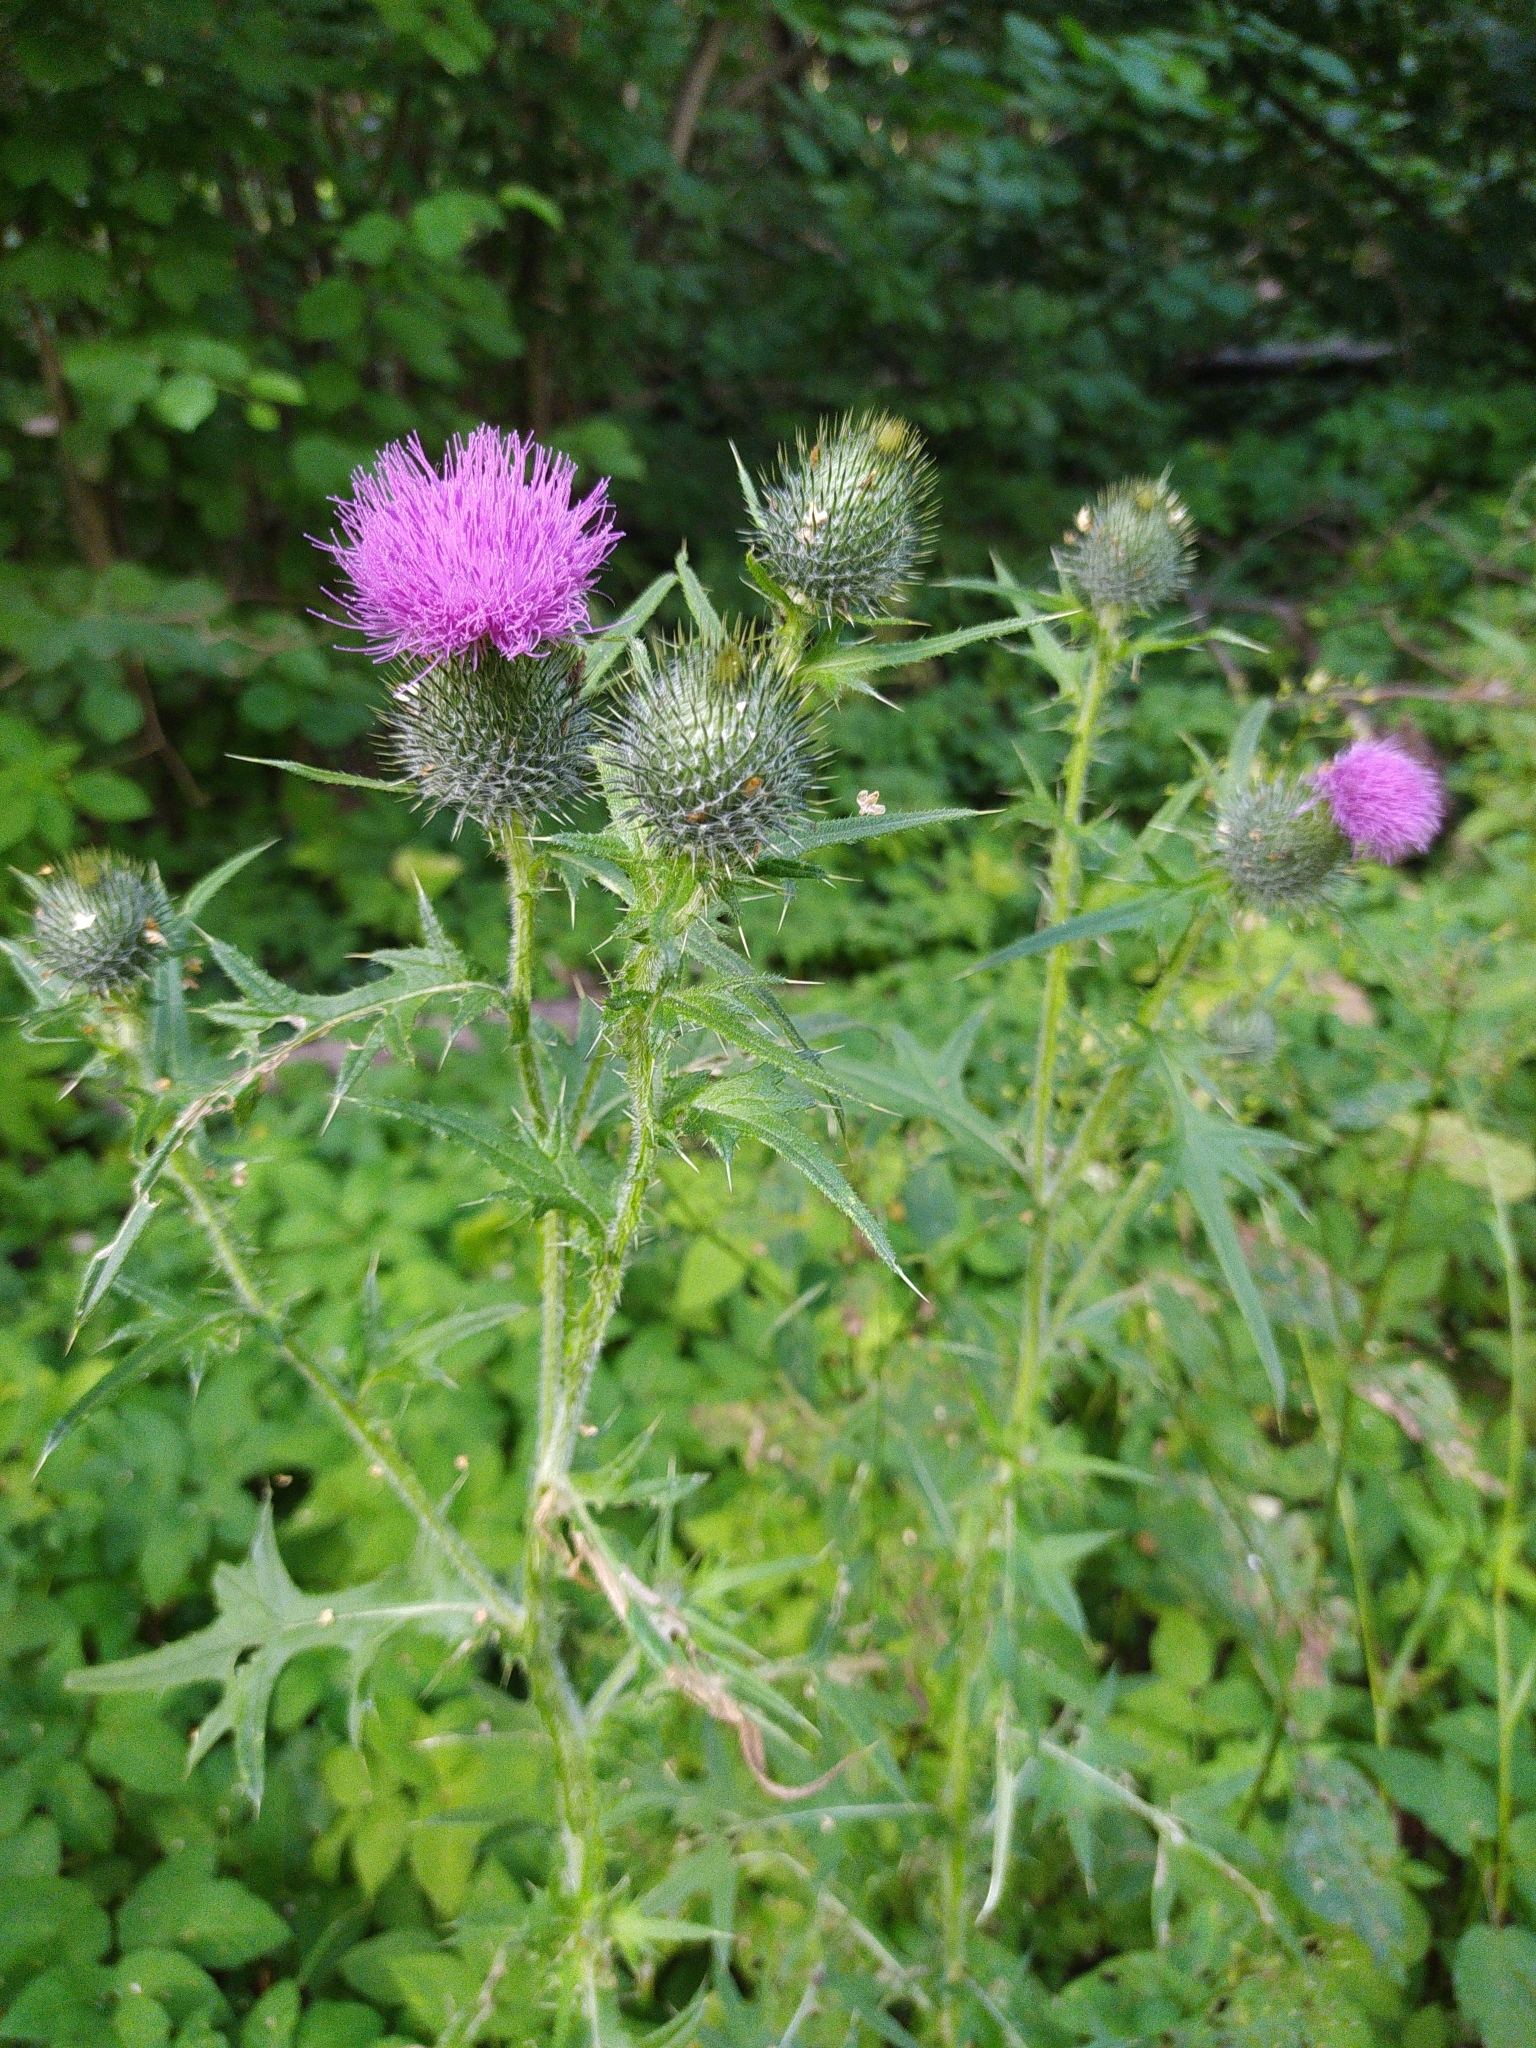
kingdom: Plantae
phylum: Tracheophyta
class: Magnoliopsida
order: Asterales
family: Asteraceae
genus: Cirsium
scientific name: Cirsium vulgare
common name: Bull thistle
